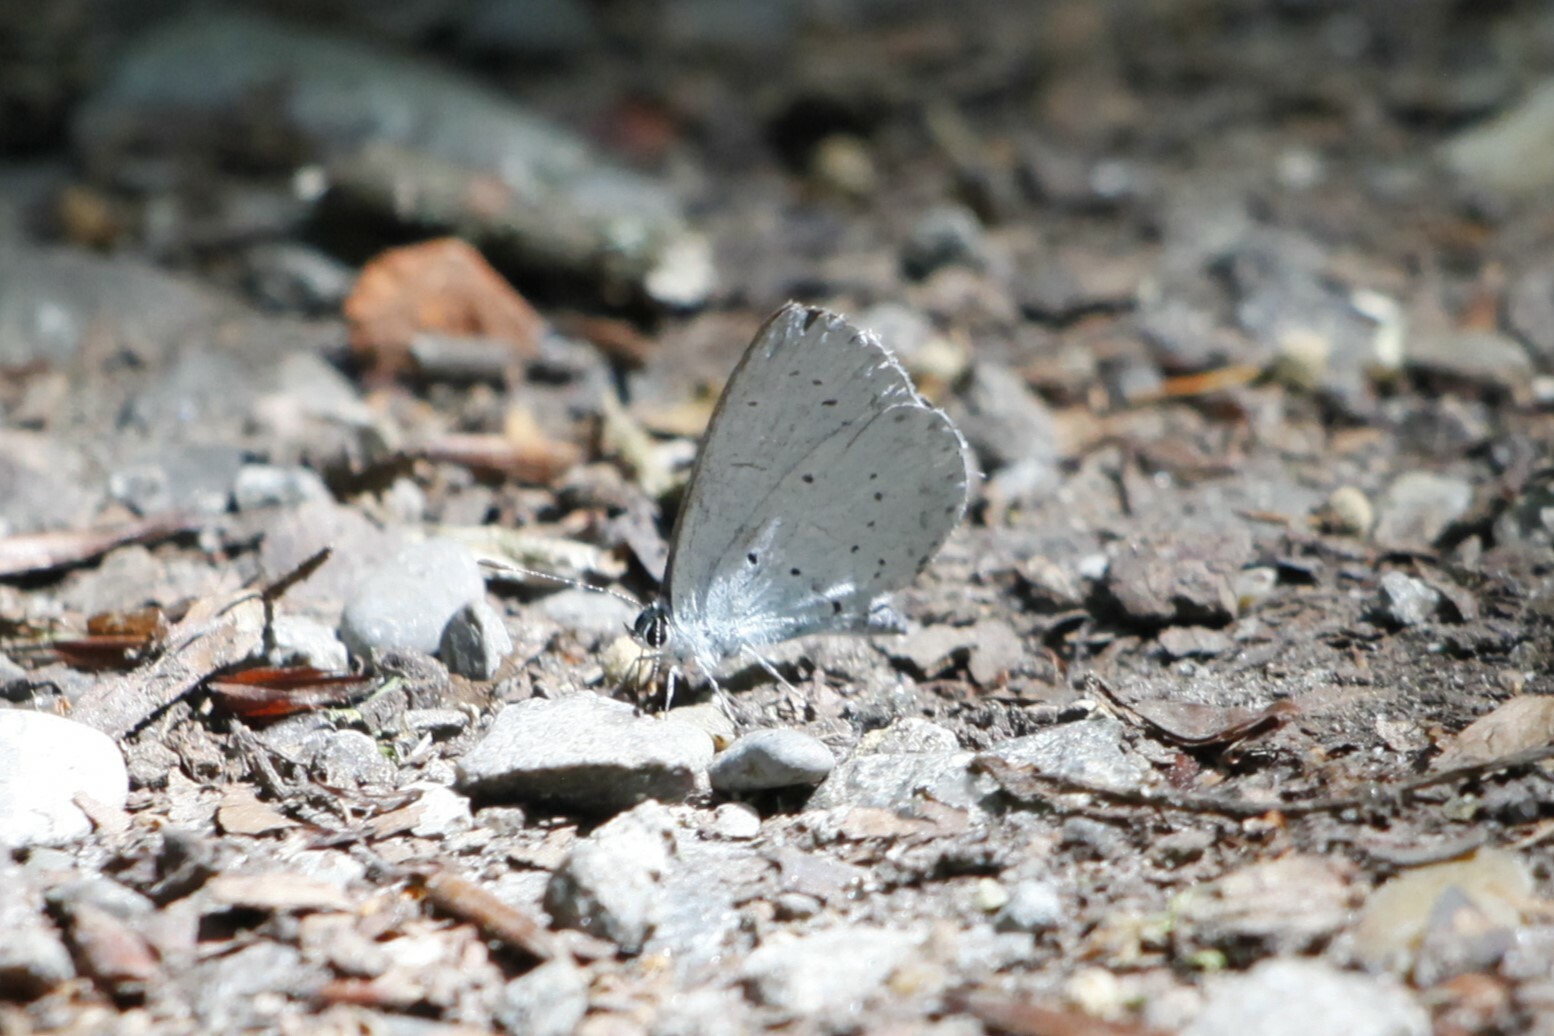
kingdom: Animalia
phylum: Arthropoda
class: Insecta
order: Lepidoptera
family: Lycaenidae
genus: Celastrina
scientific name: Celastrina argiolus
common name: Holly blue
